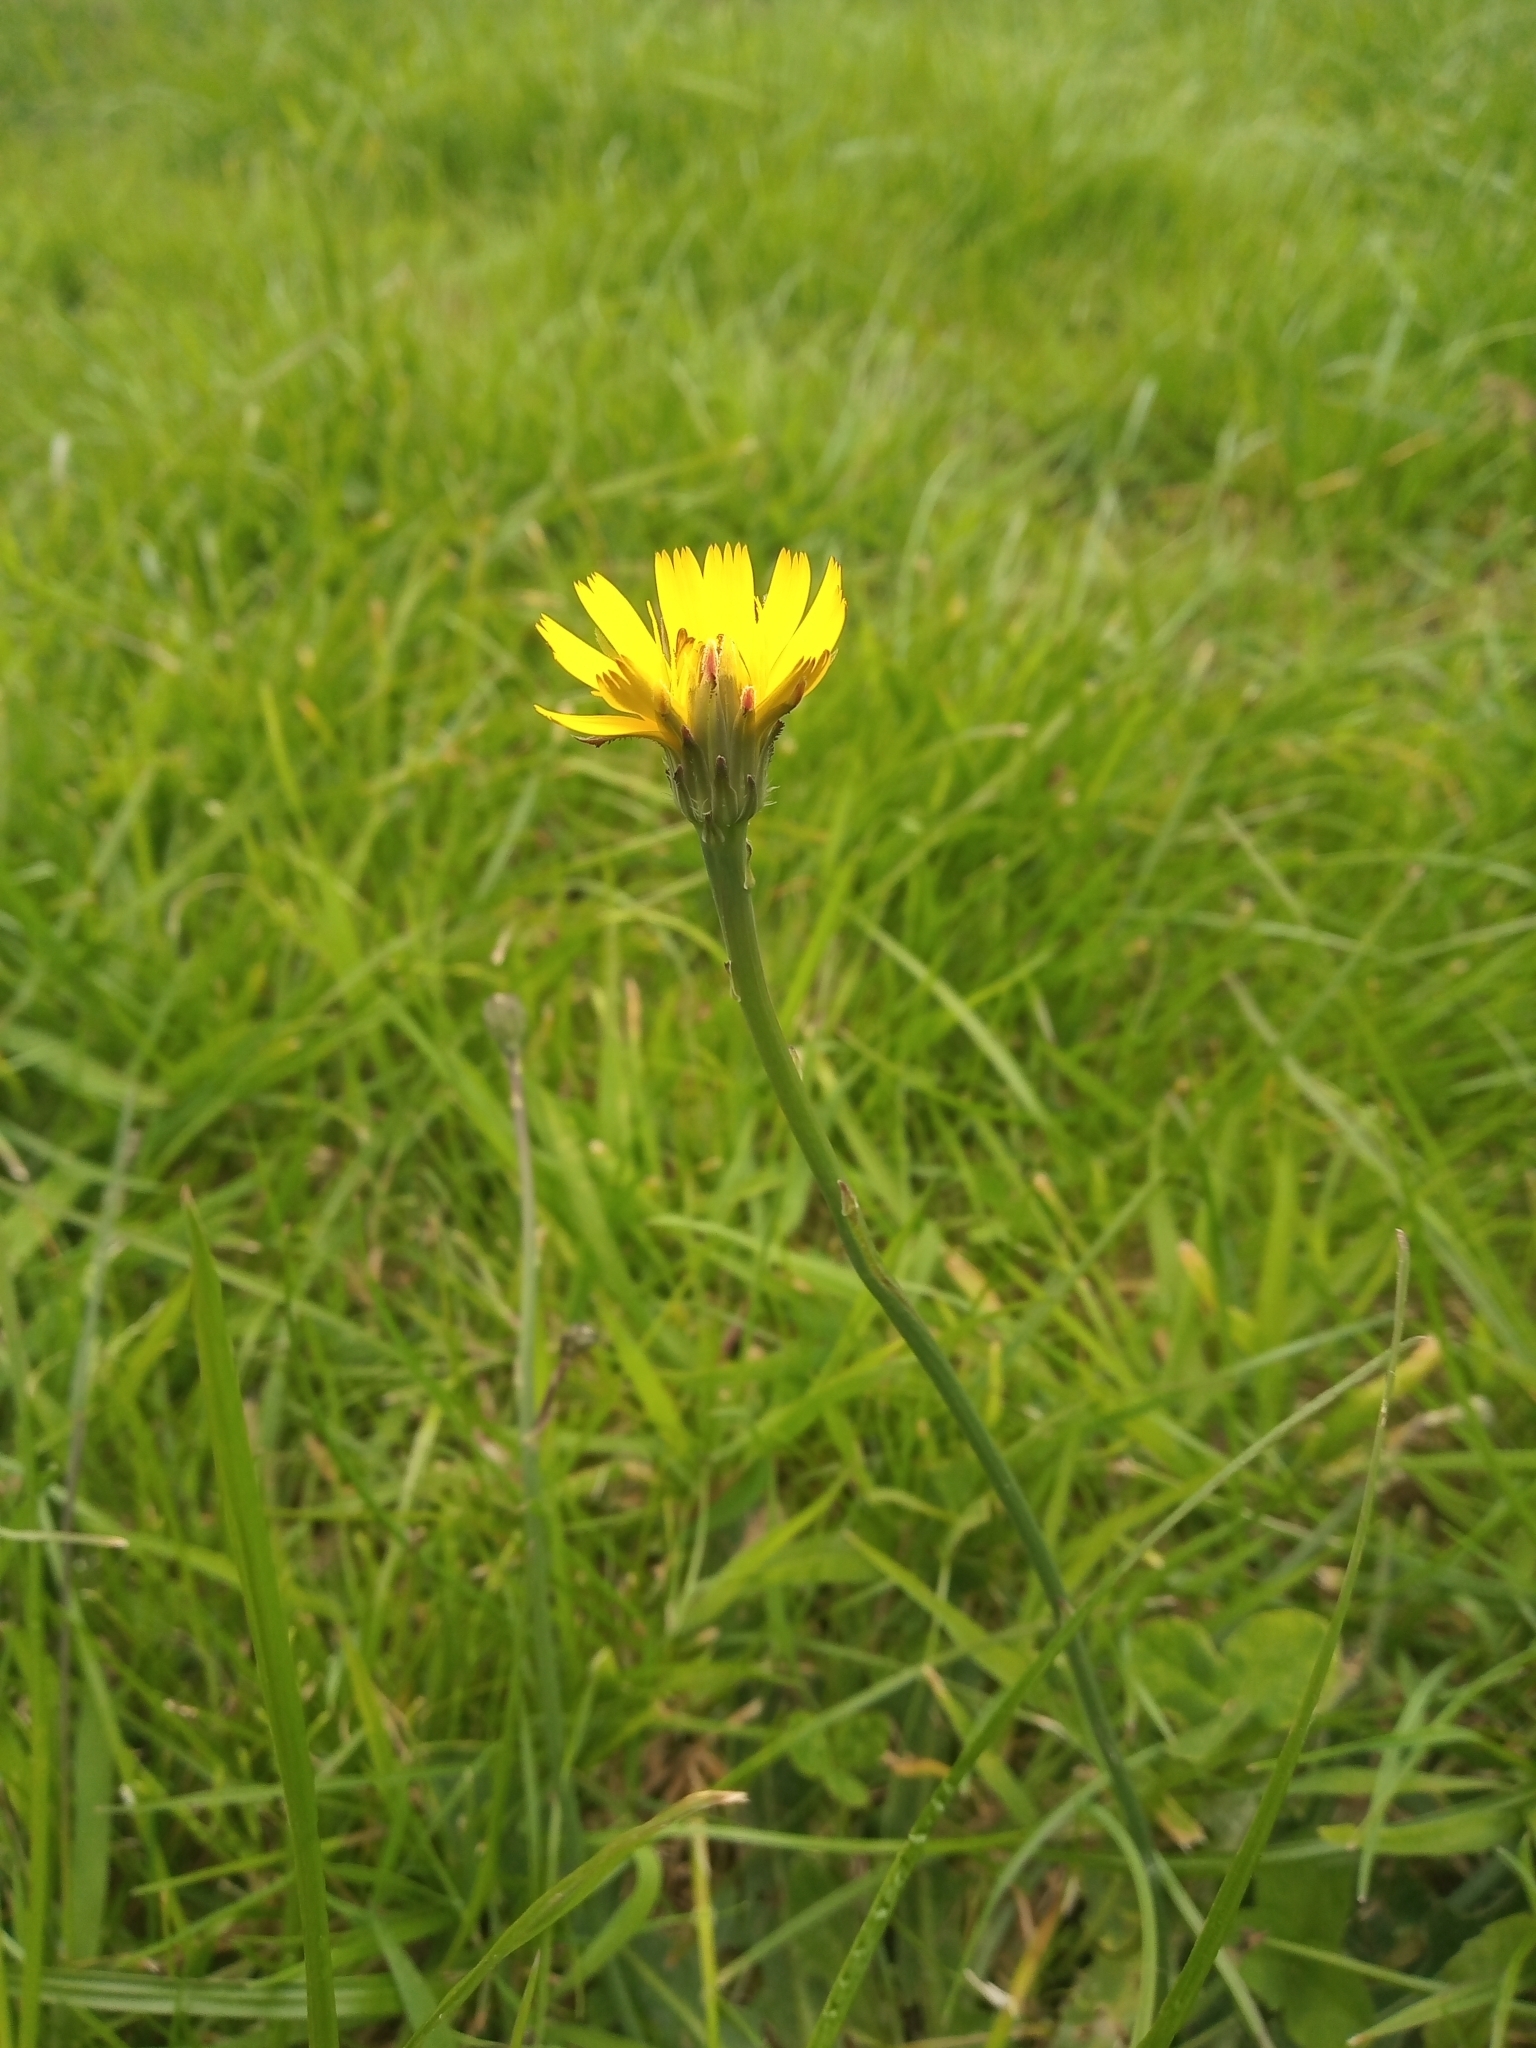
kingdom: Plantae
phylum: Tracheophyta
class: Magnoliopsida
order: Asterales
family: Asteraceae
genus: Hypochaeris
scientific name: Hypochaeris radicata
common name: Flatweed
